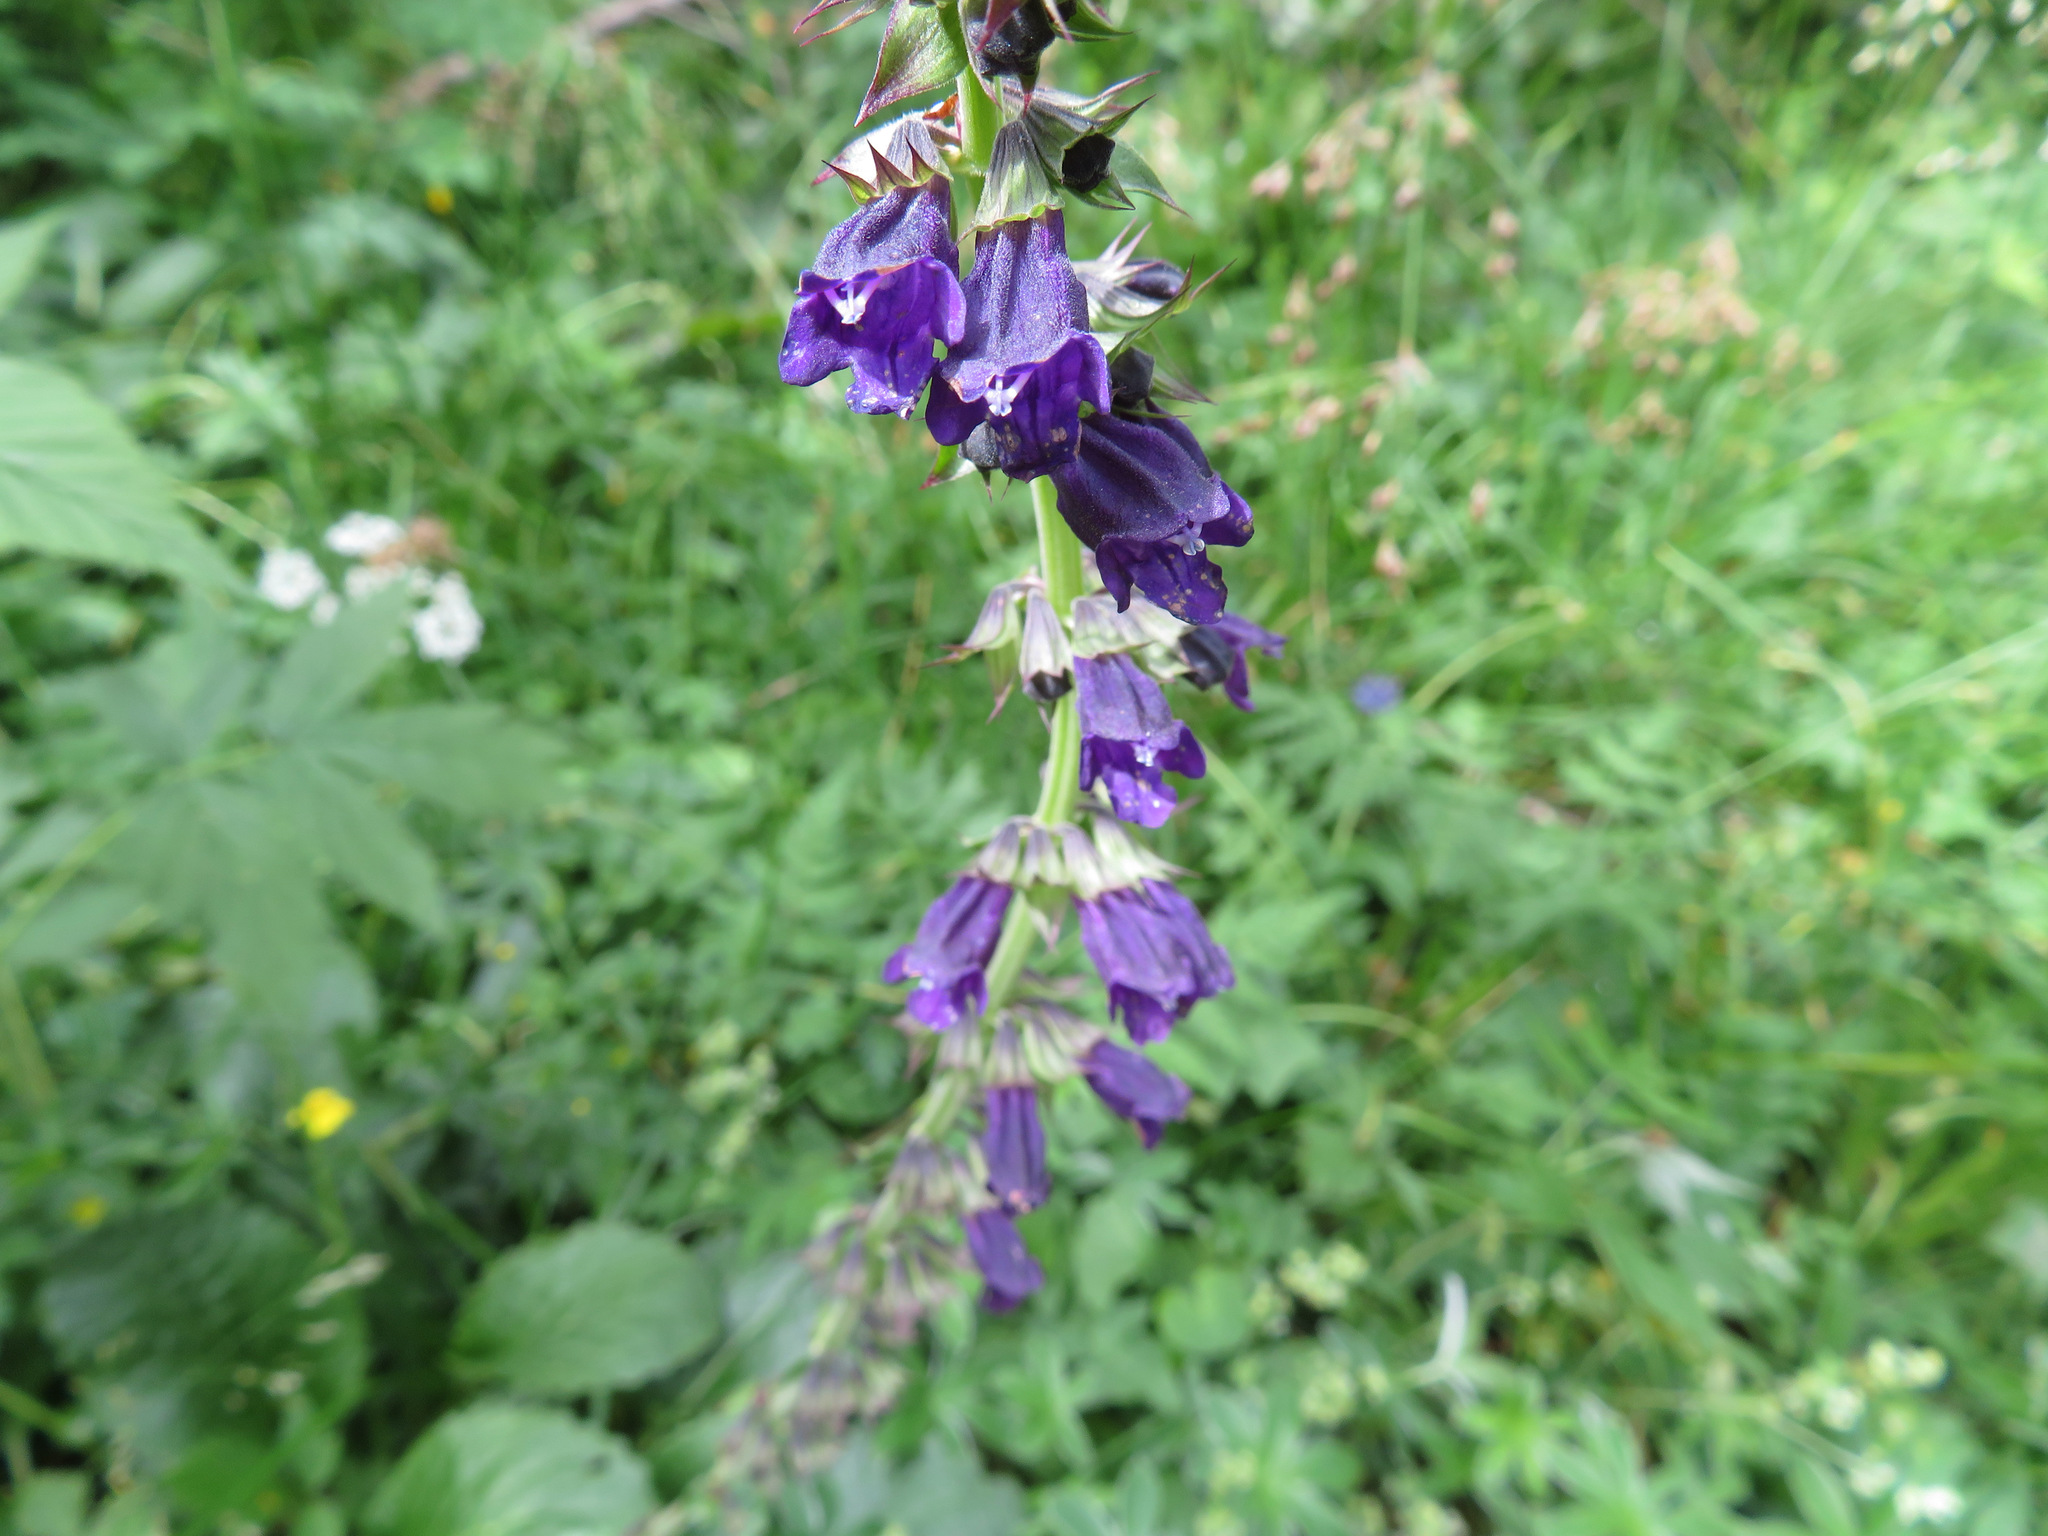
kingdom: Plantae
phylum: Tracheophyta
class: Magnoliopsida
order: Lamiales
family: Lamiaceae
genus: Horminum
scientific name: Horminum pyrenaicum
